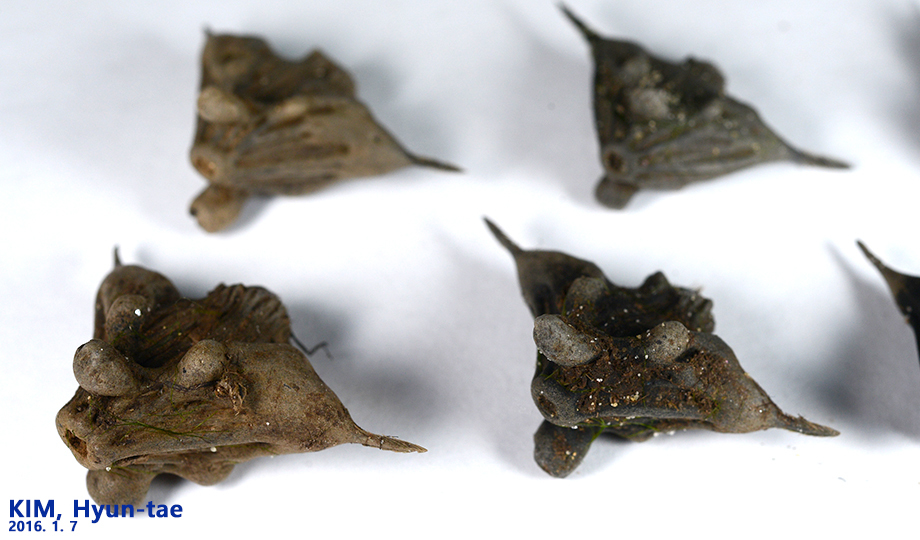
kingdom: Plantae
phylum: Tracheophyta
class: Magnoliopsida
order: Myrtales
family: Lythraceae
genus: Trapa
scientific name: Trapa natans
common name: Water chestnut
